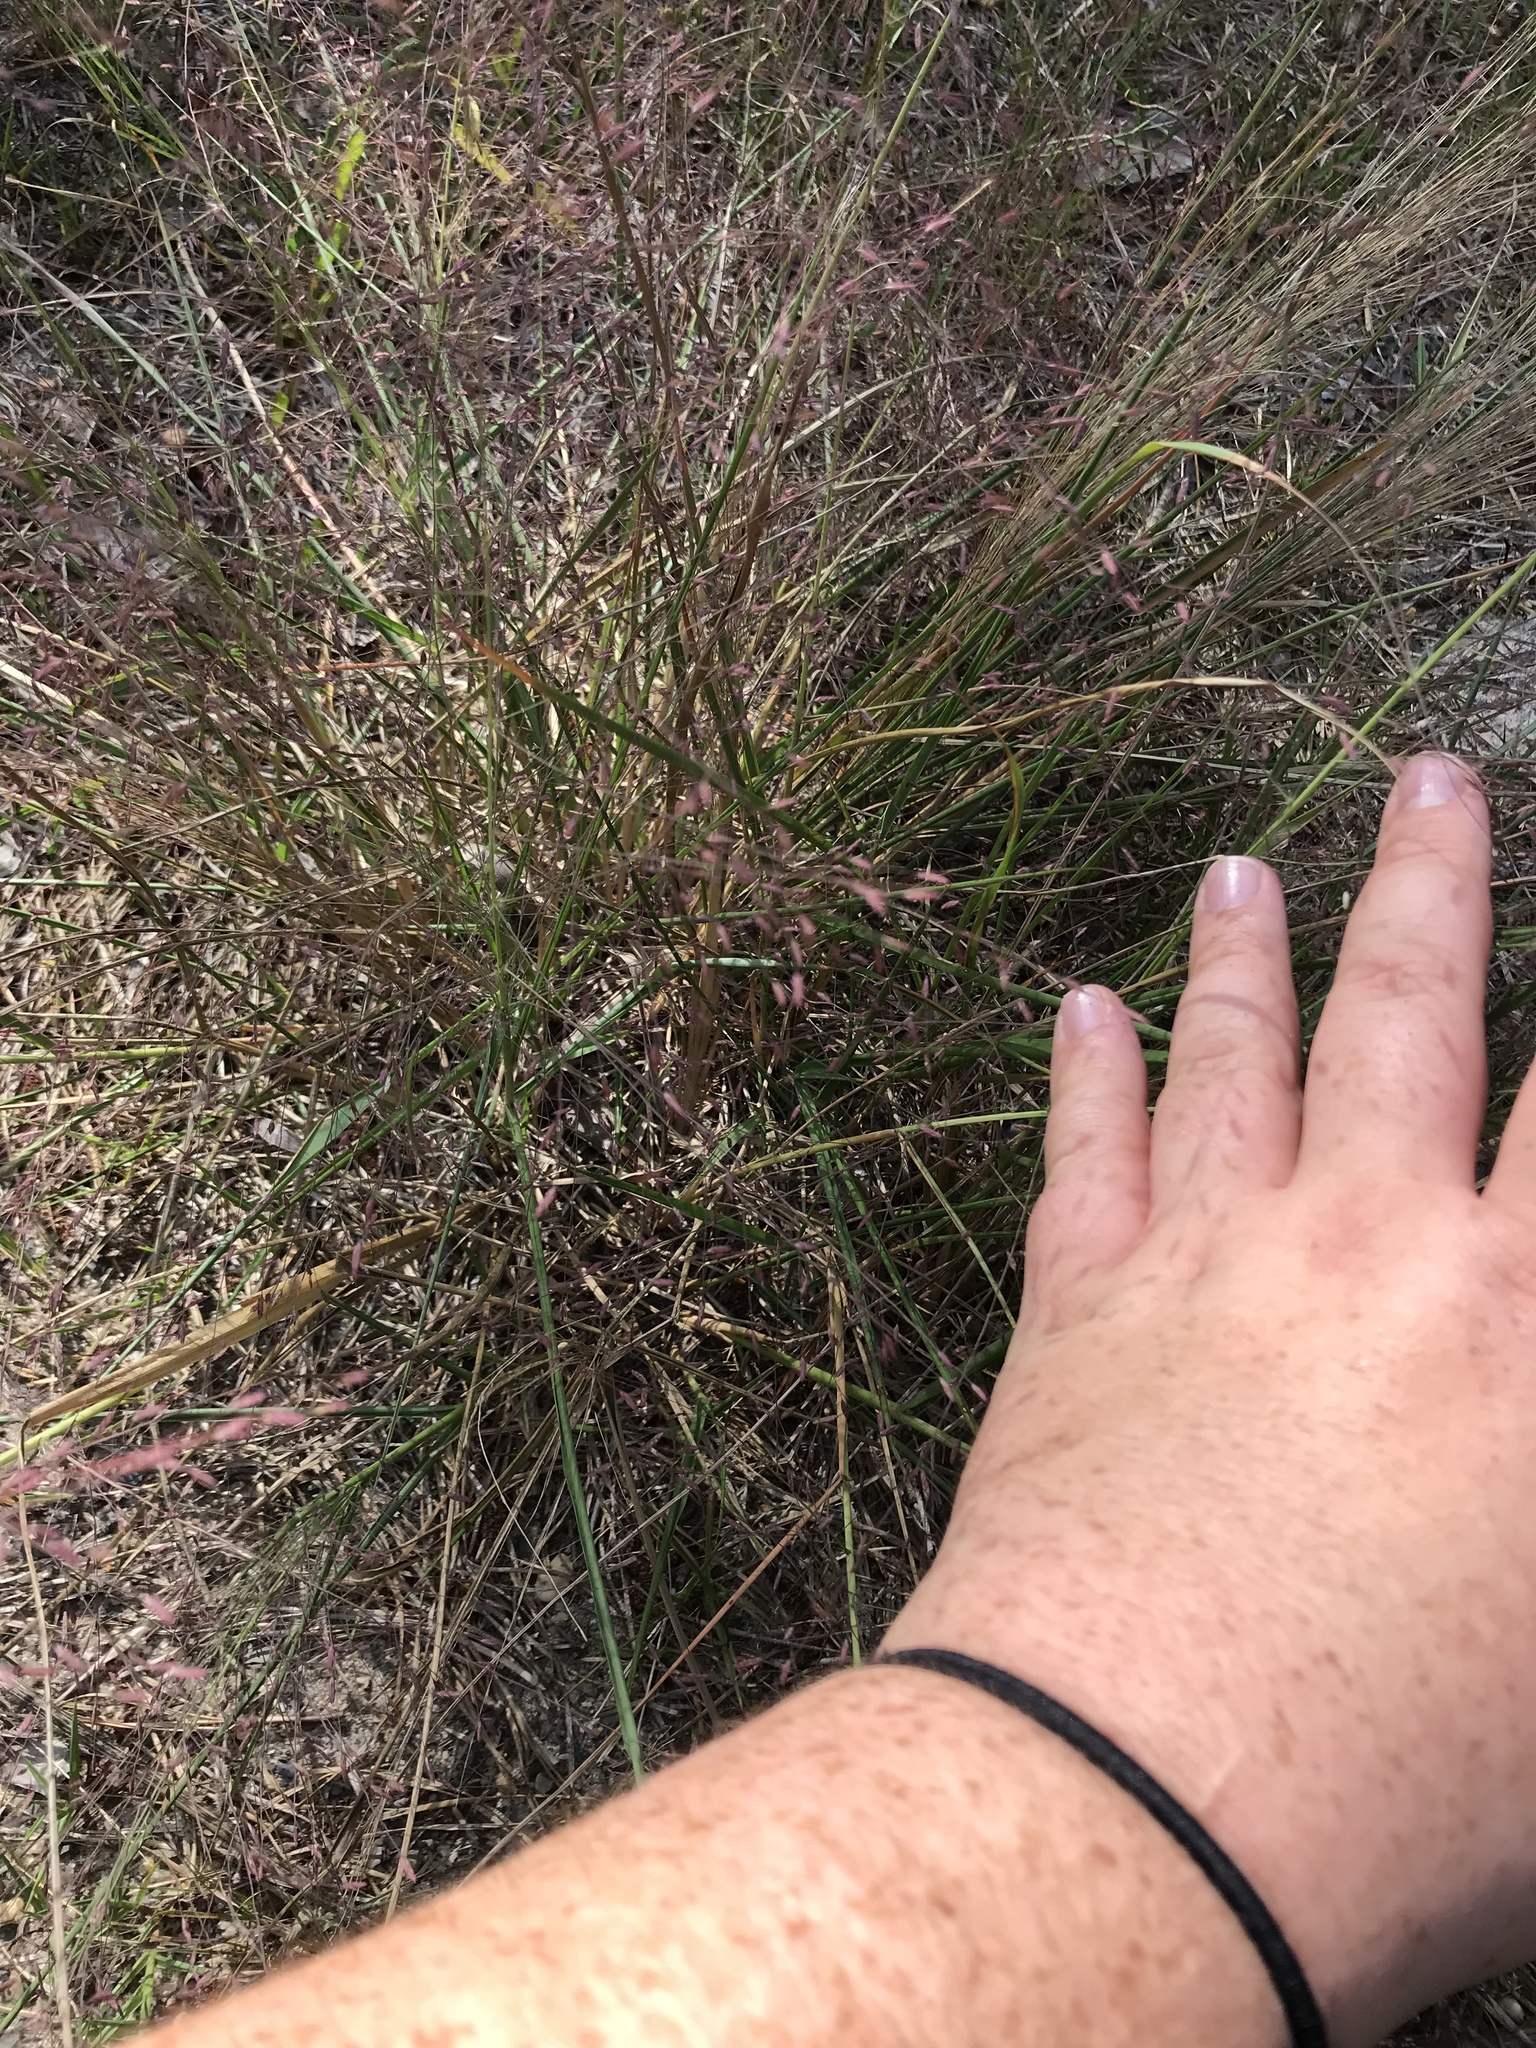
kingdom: Plantae
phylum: Tracheophyta
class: Liliopsida
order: Poales
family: Poaceae
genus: Eragrostis
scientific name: Eragrostis spectabilis
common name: Petticoat-climber
